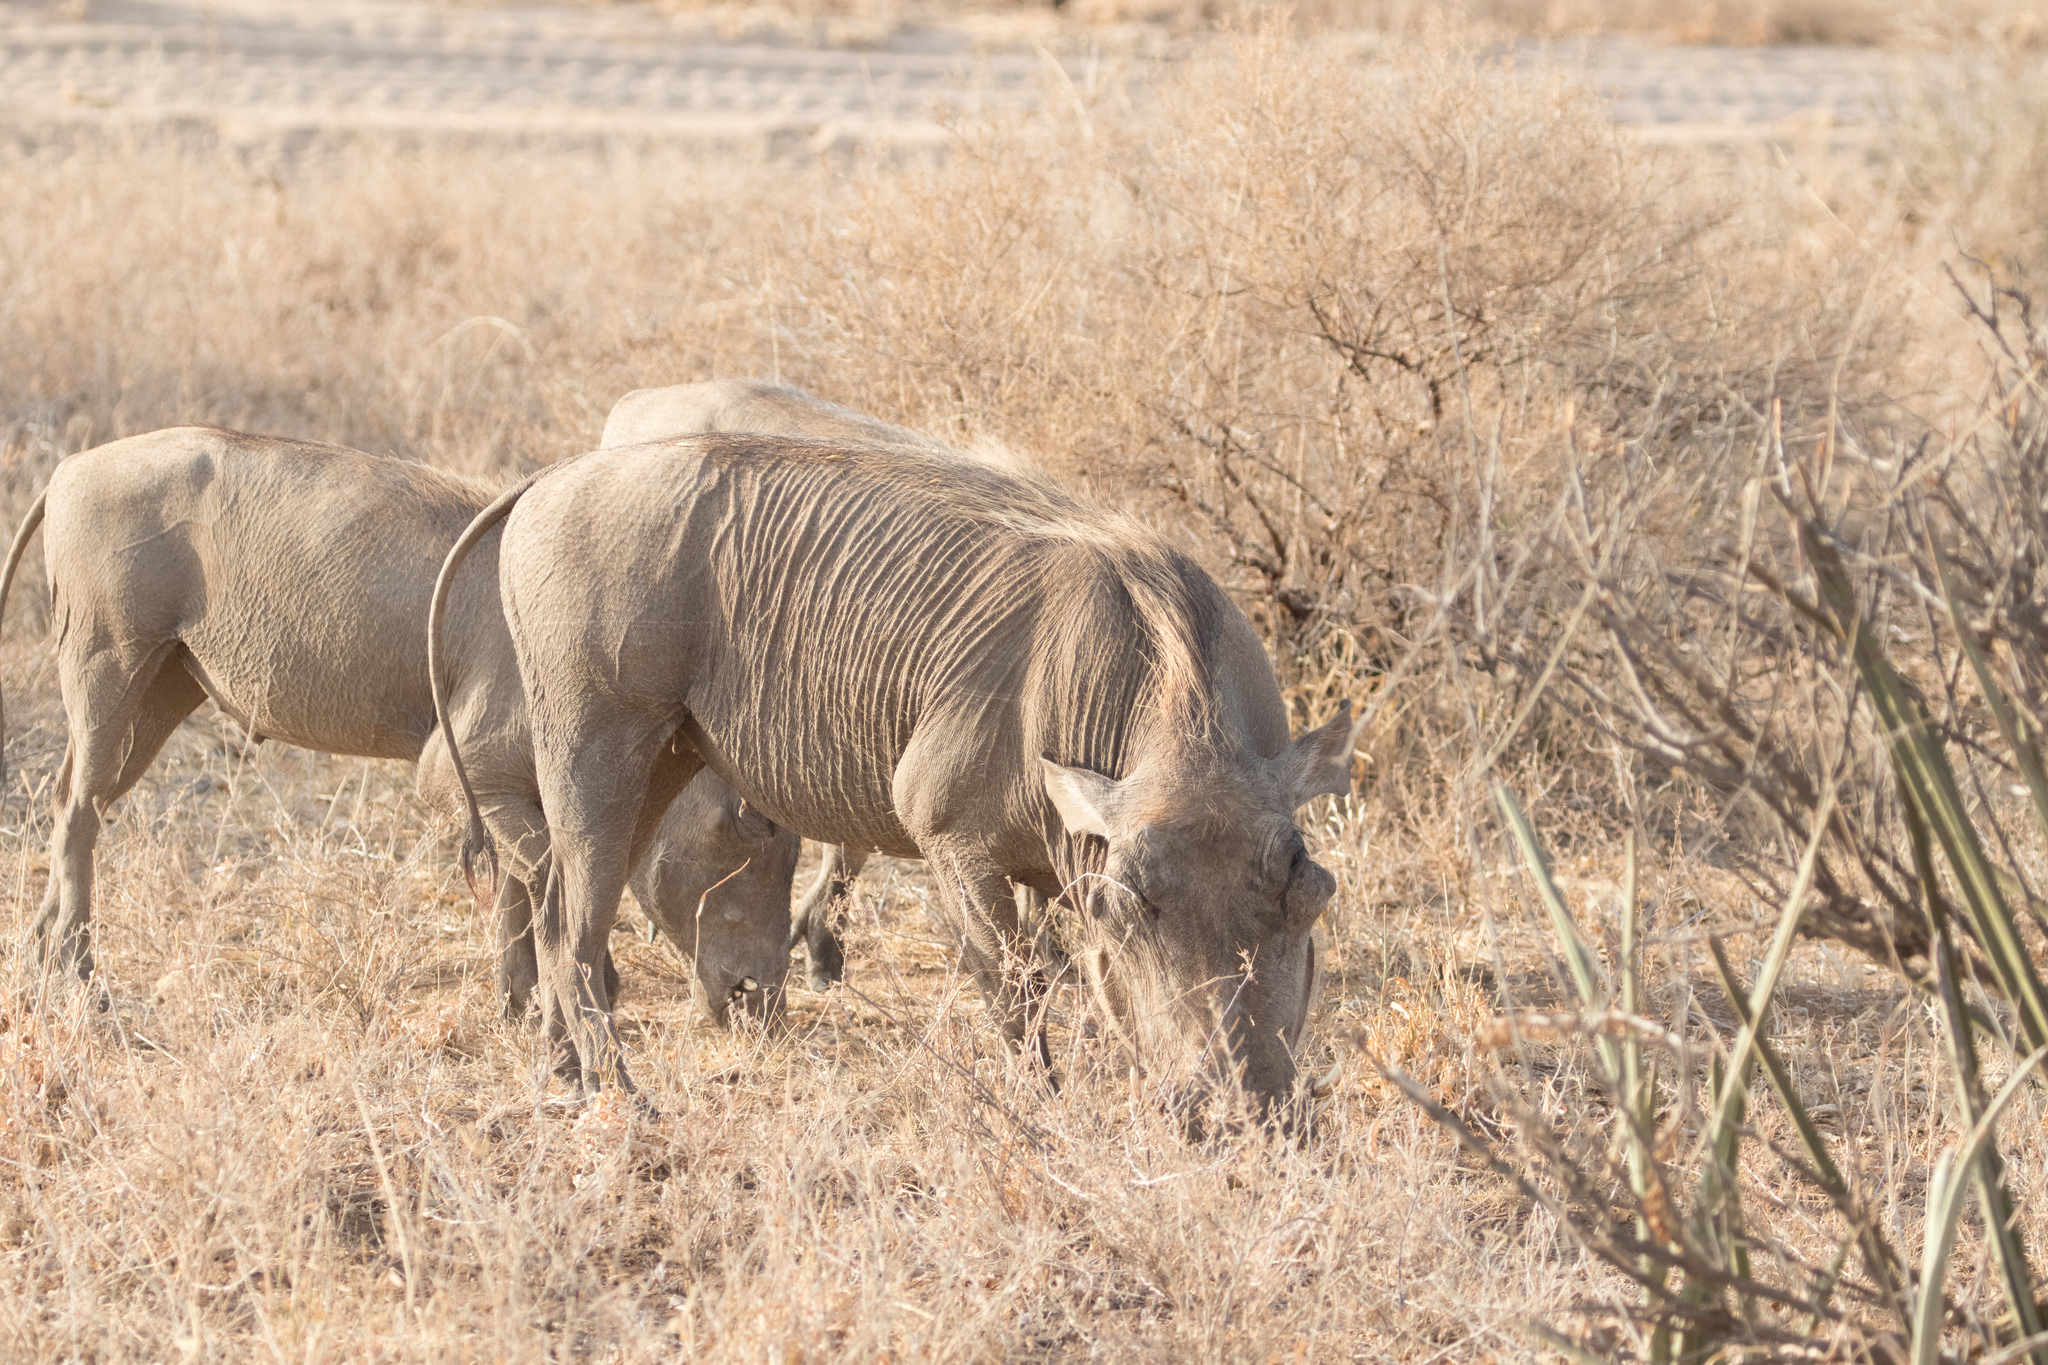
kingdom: Animalia
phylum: Chordata
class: Mammalia
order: Artiodactyla
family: Suidae
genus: Phacochoerus
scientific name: Phacochoerus aethiopicus
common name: Desert warthog
